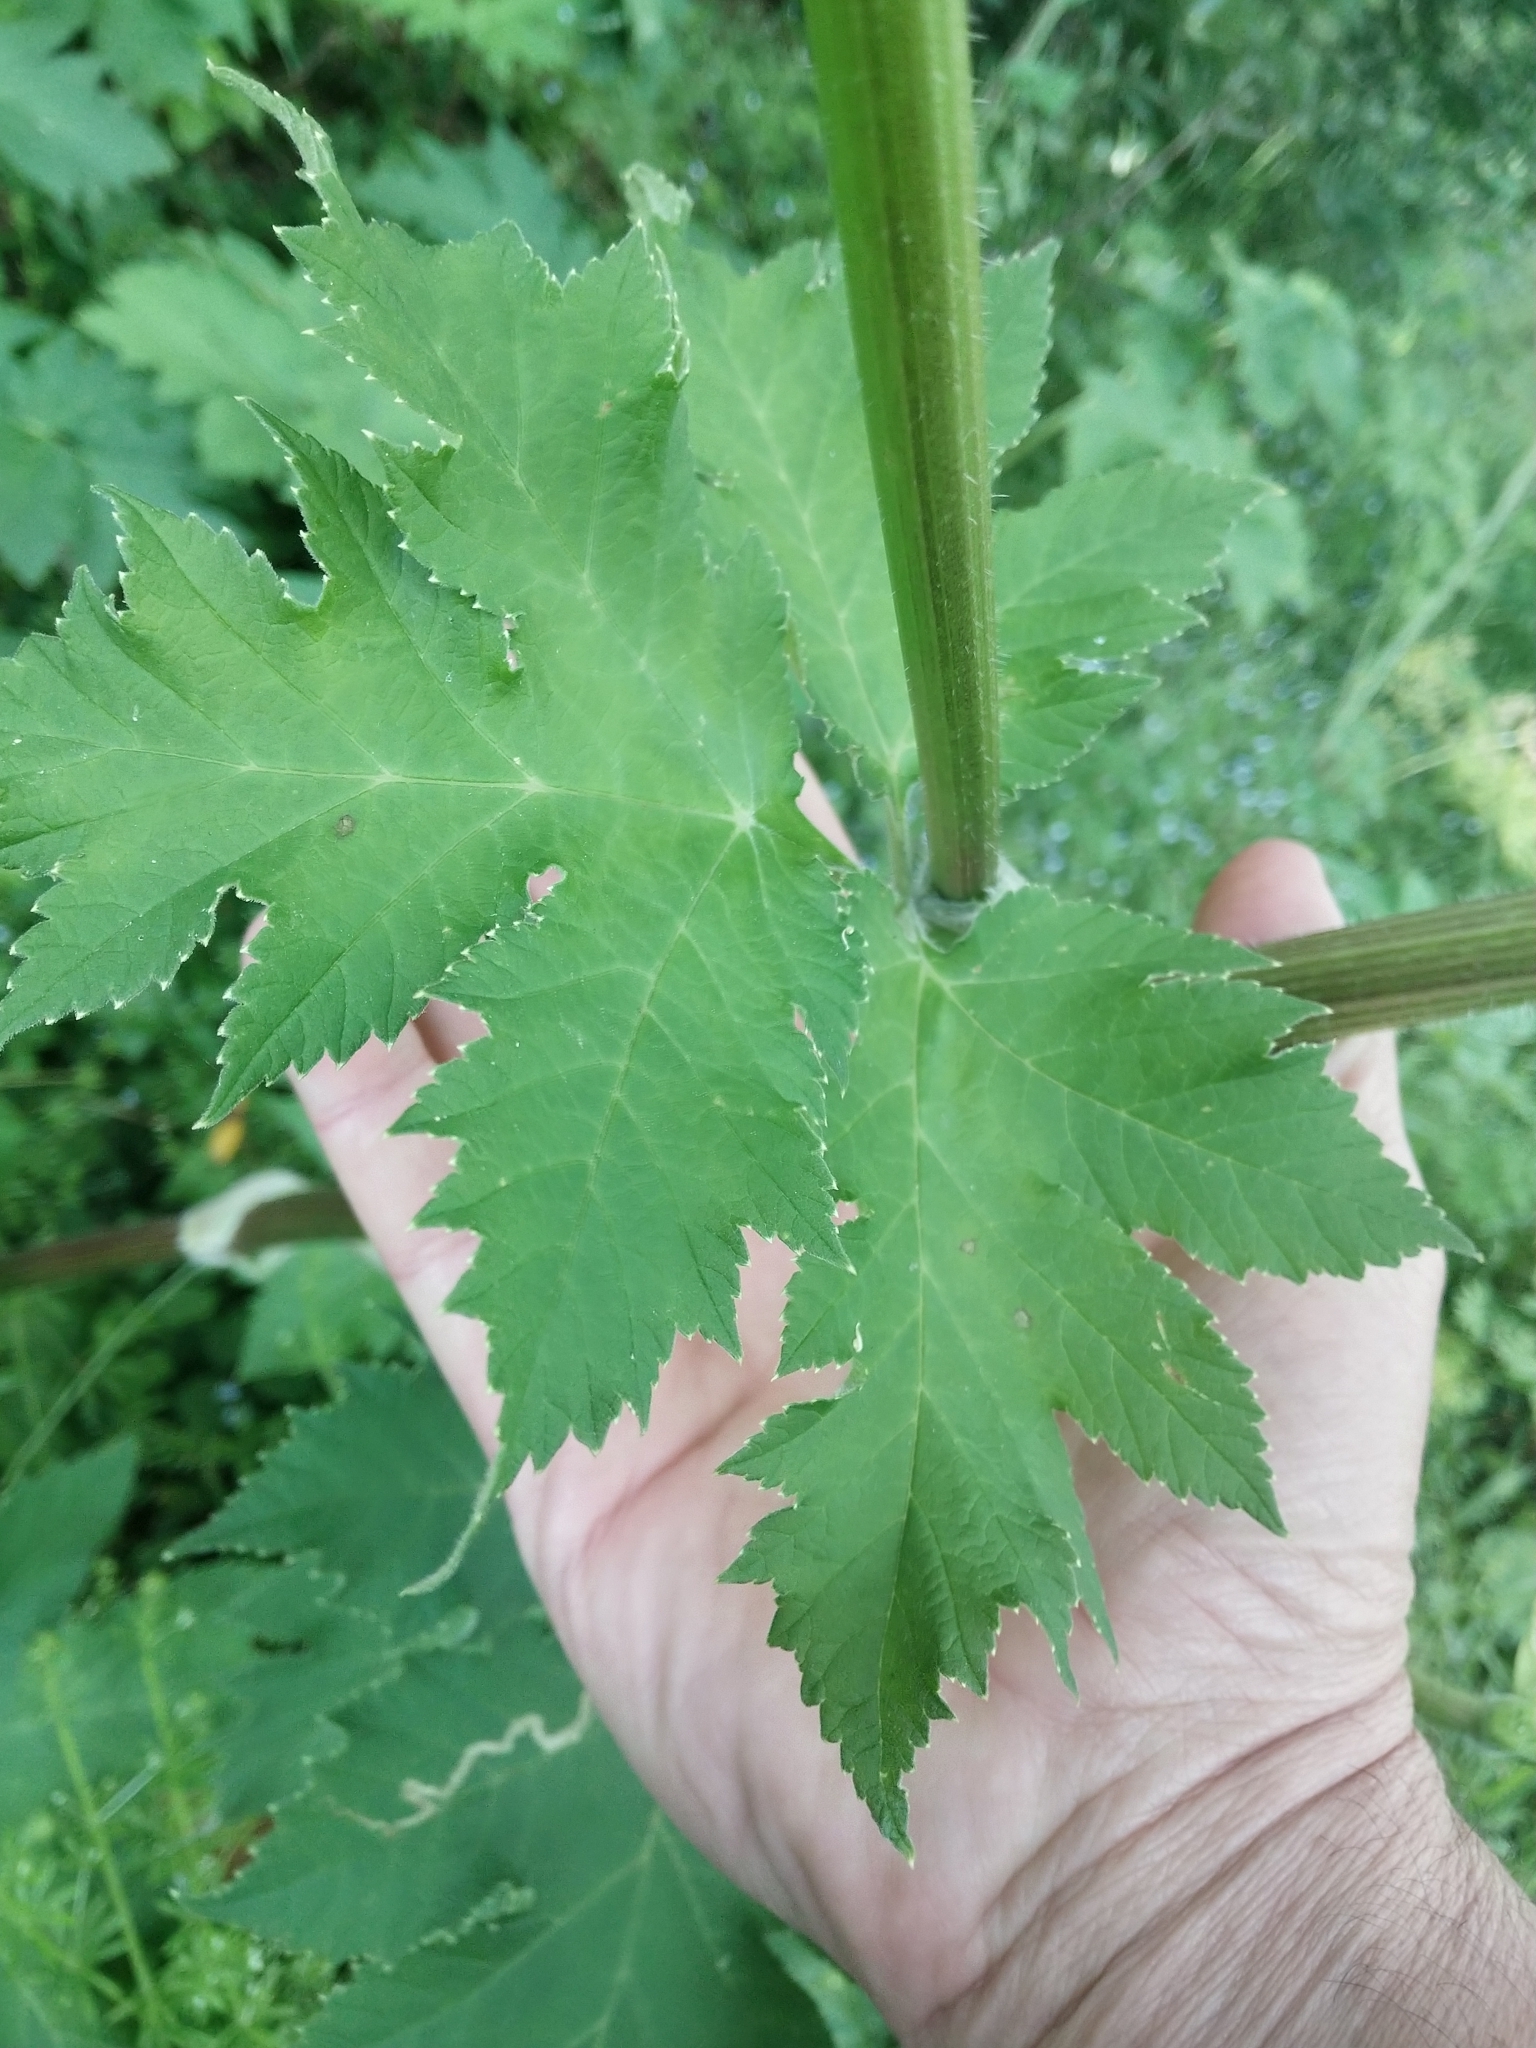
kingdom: Plantae
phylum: Tracheophyta
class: Magnoliopsida
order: Apiales
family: Apiaceae
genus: Heracleum
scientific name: Heracleum maximum
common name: American cow parsnip
